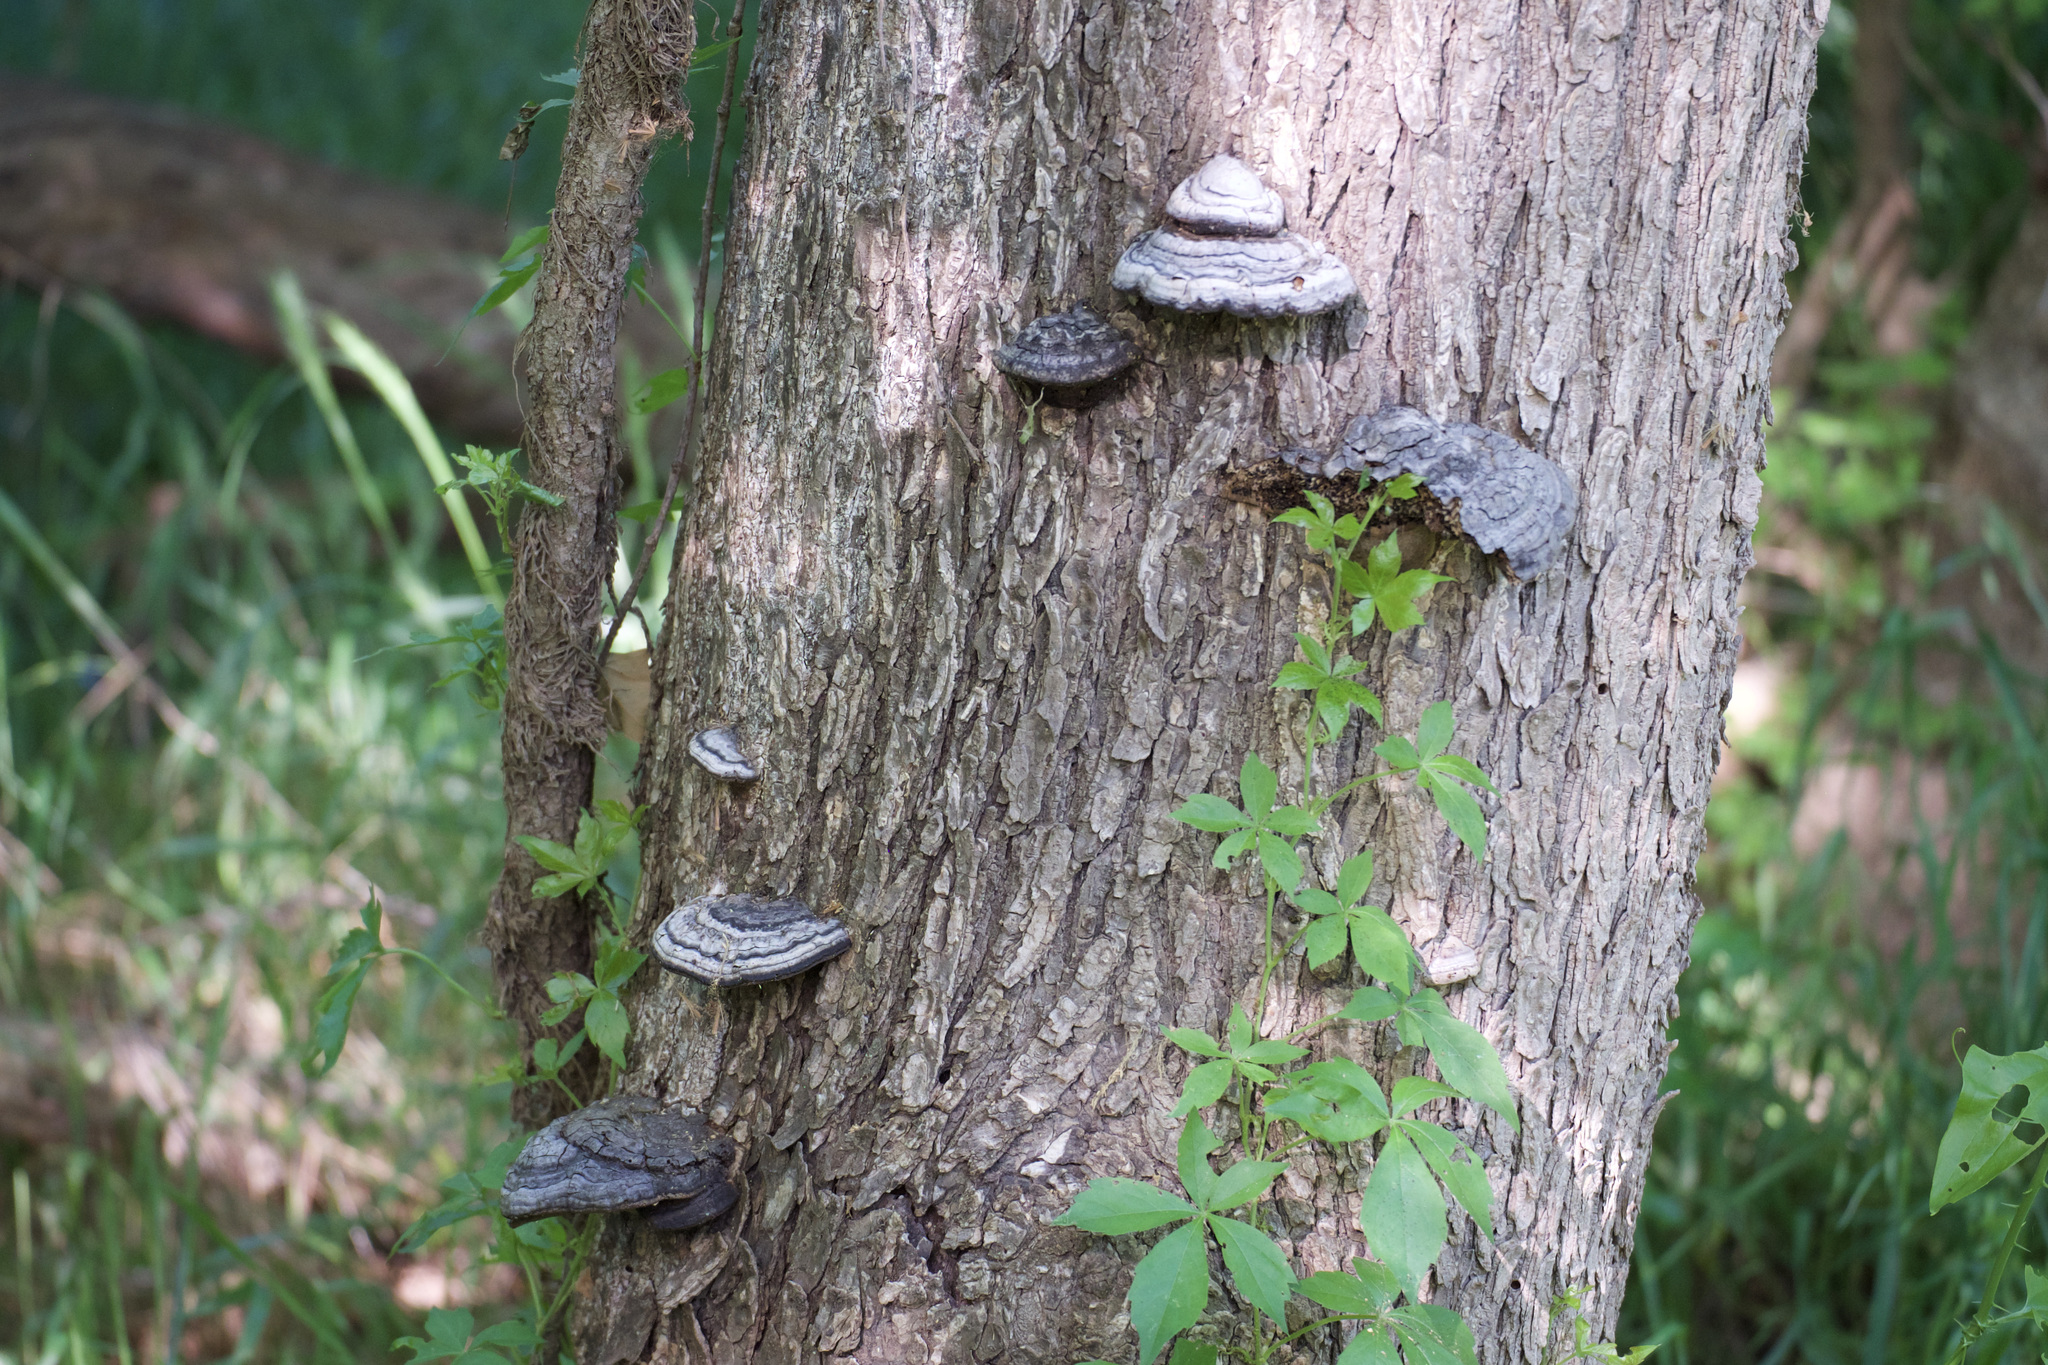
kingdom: Fungi
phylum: Basidiomycota
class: Agaricomycetes
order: Polyporales
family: Polyporaceae
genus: Fomes
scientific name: Fomes fasciatus
